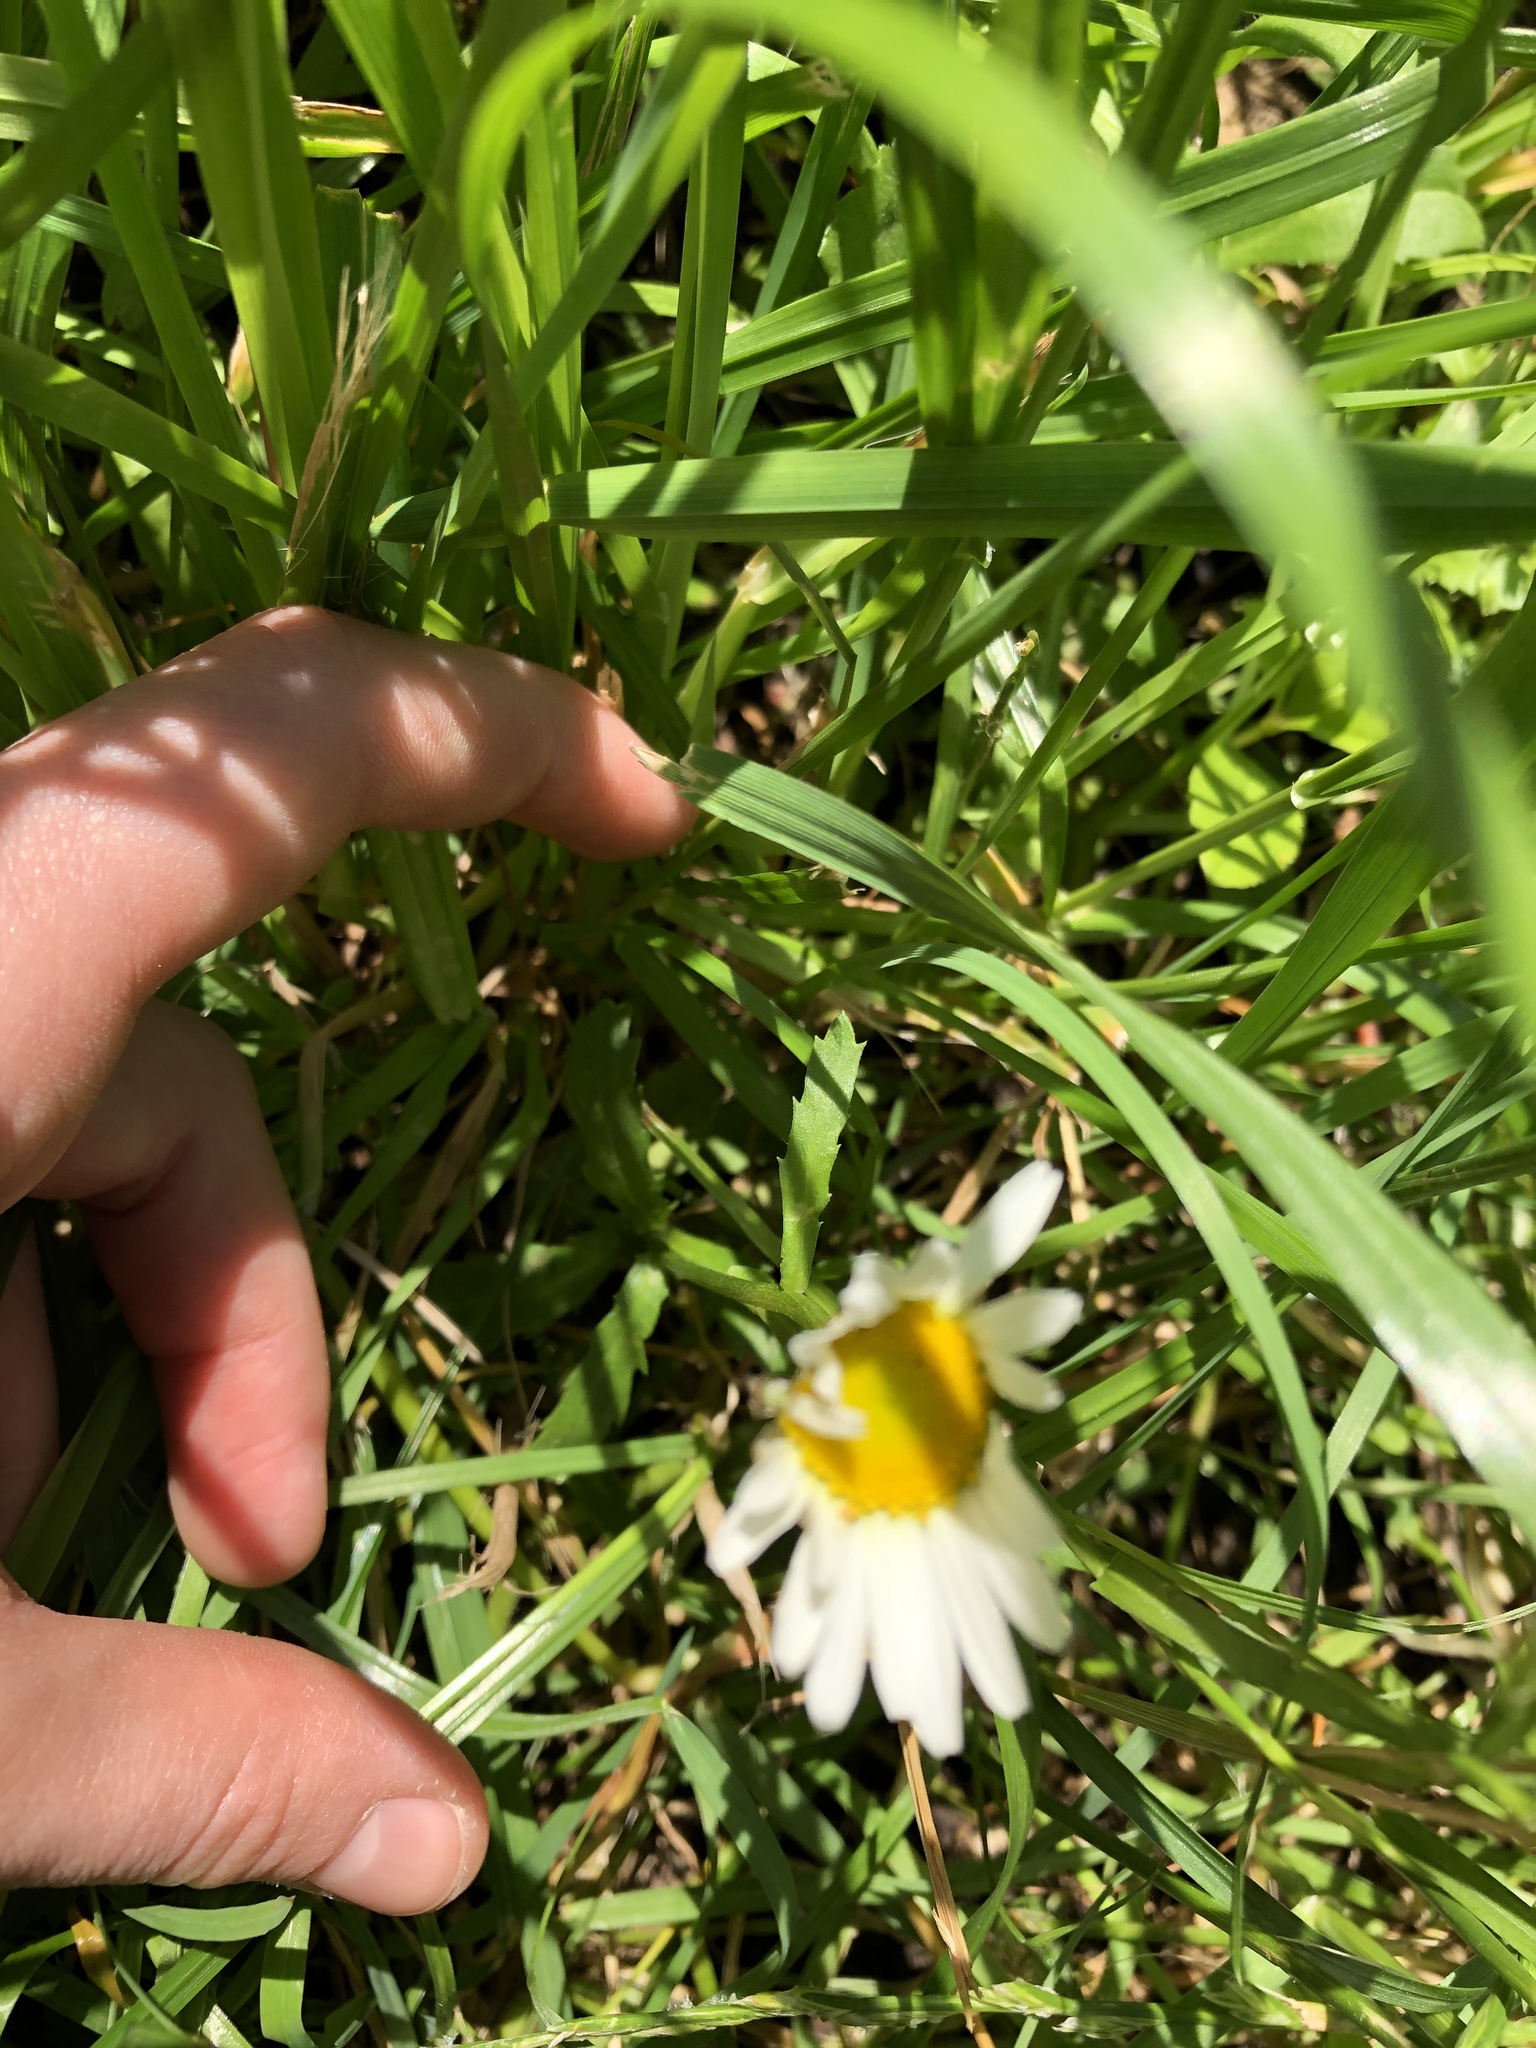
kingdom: Plantae
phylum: Tracheophyta
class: Magnoliopsida
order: Asterales
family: Asteraceae
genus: Leucanthemum
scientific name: Leucanthemum vulgare
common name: Oxeye daisy
